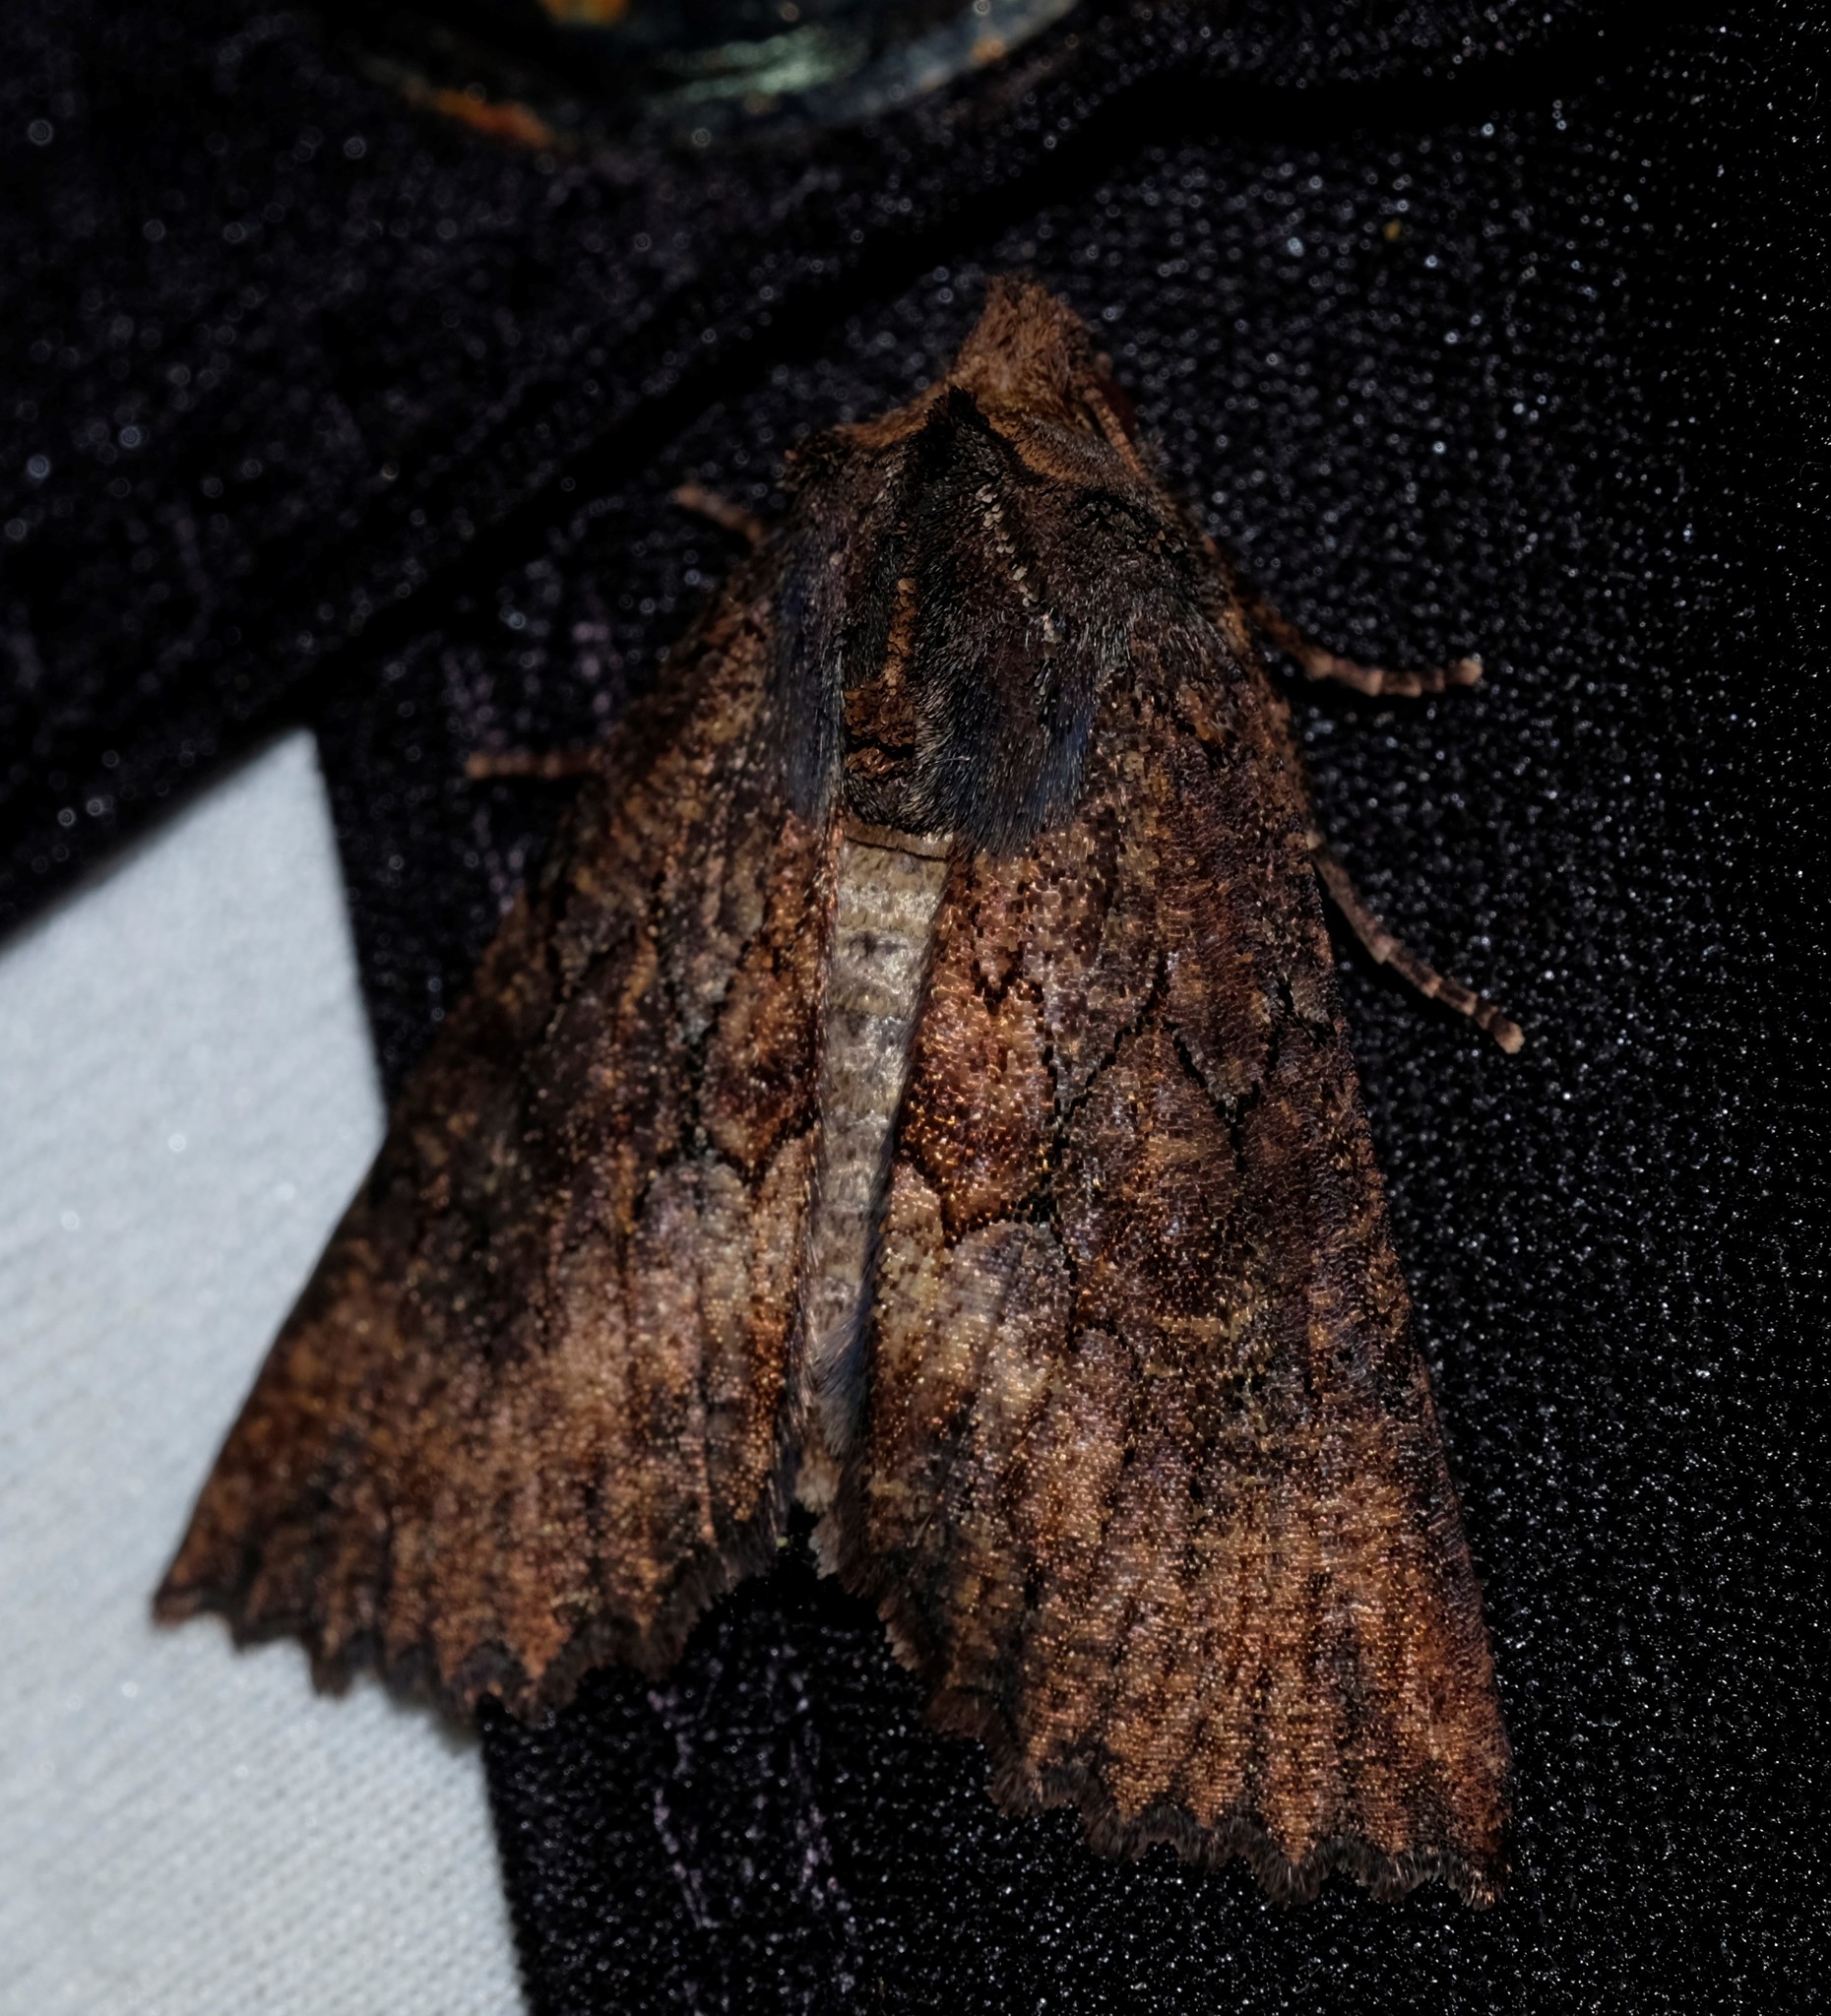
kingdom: Animalia
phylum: Arthropoda
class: Insecta
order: Lepidoptera
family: Geometridae
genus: Nisista
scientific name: Nisista serrata
